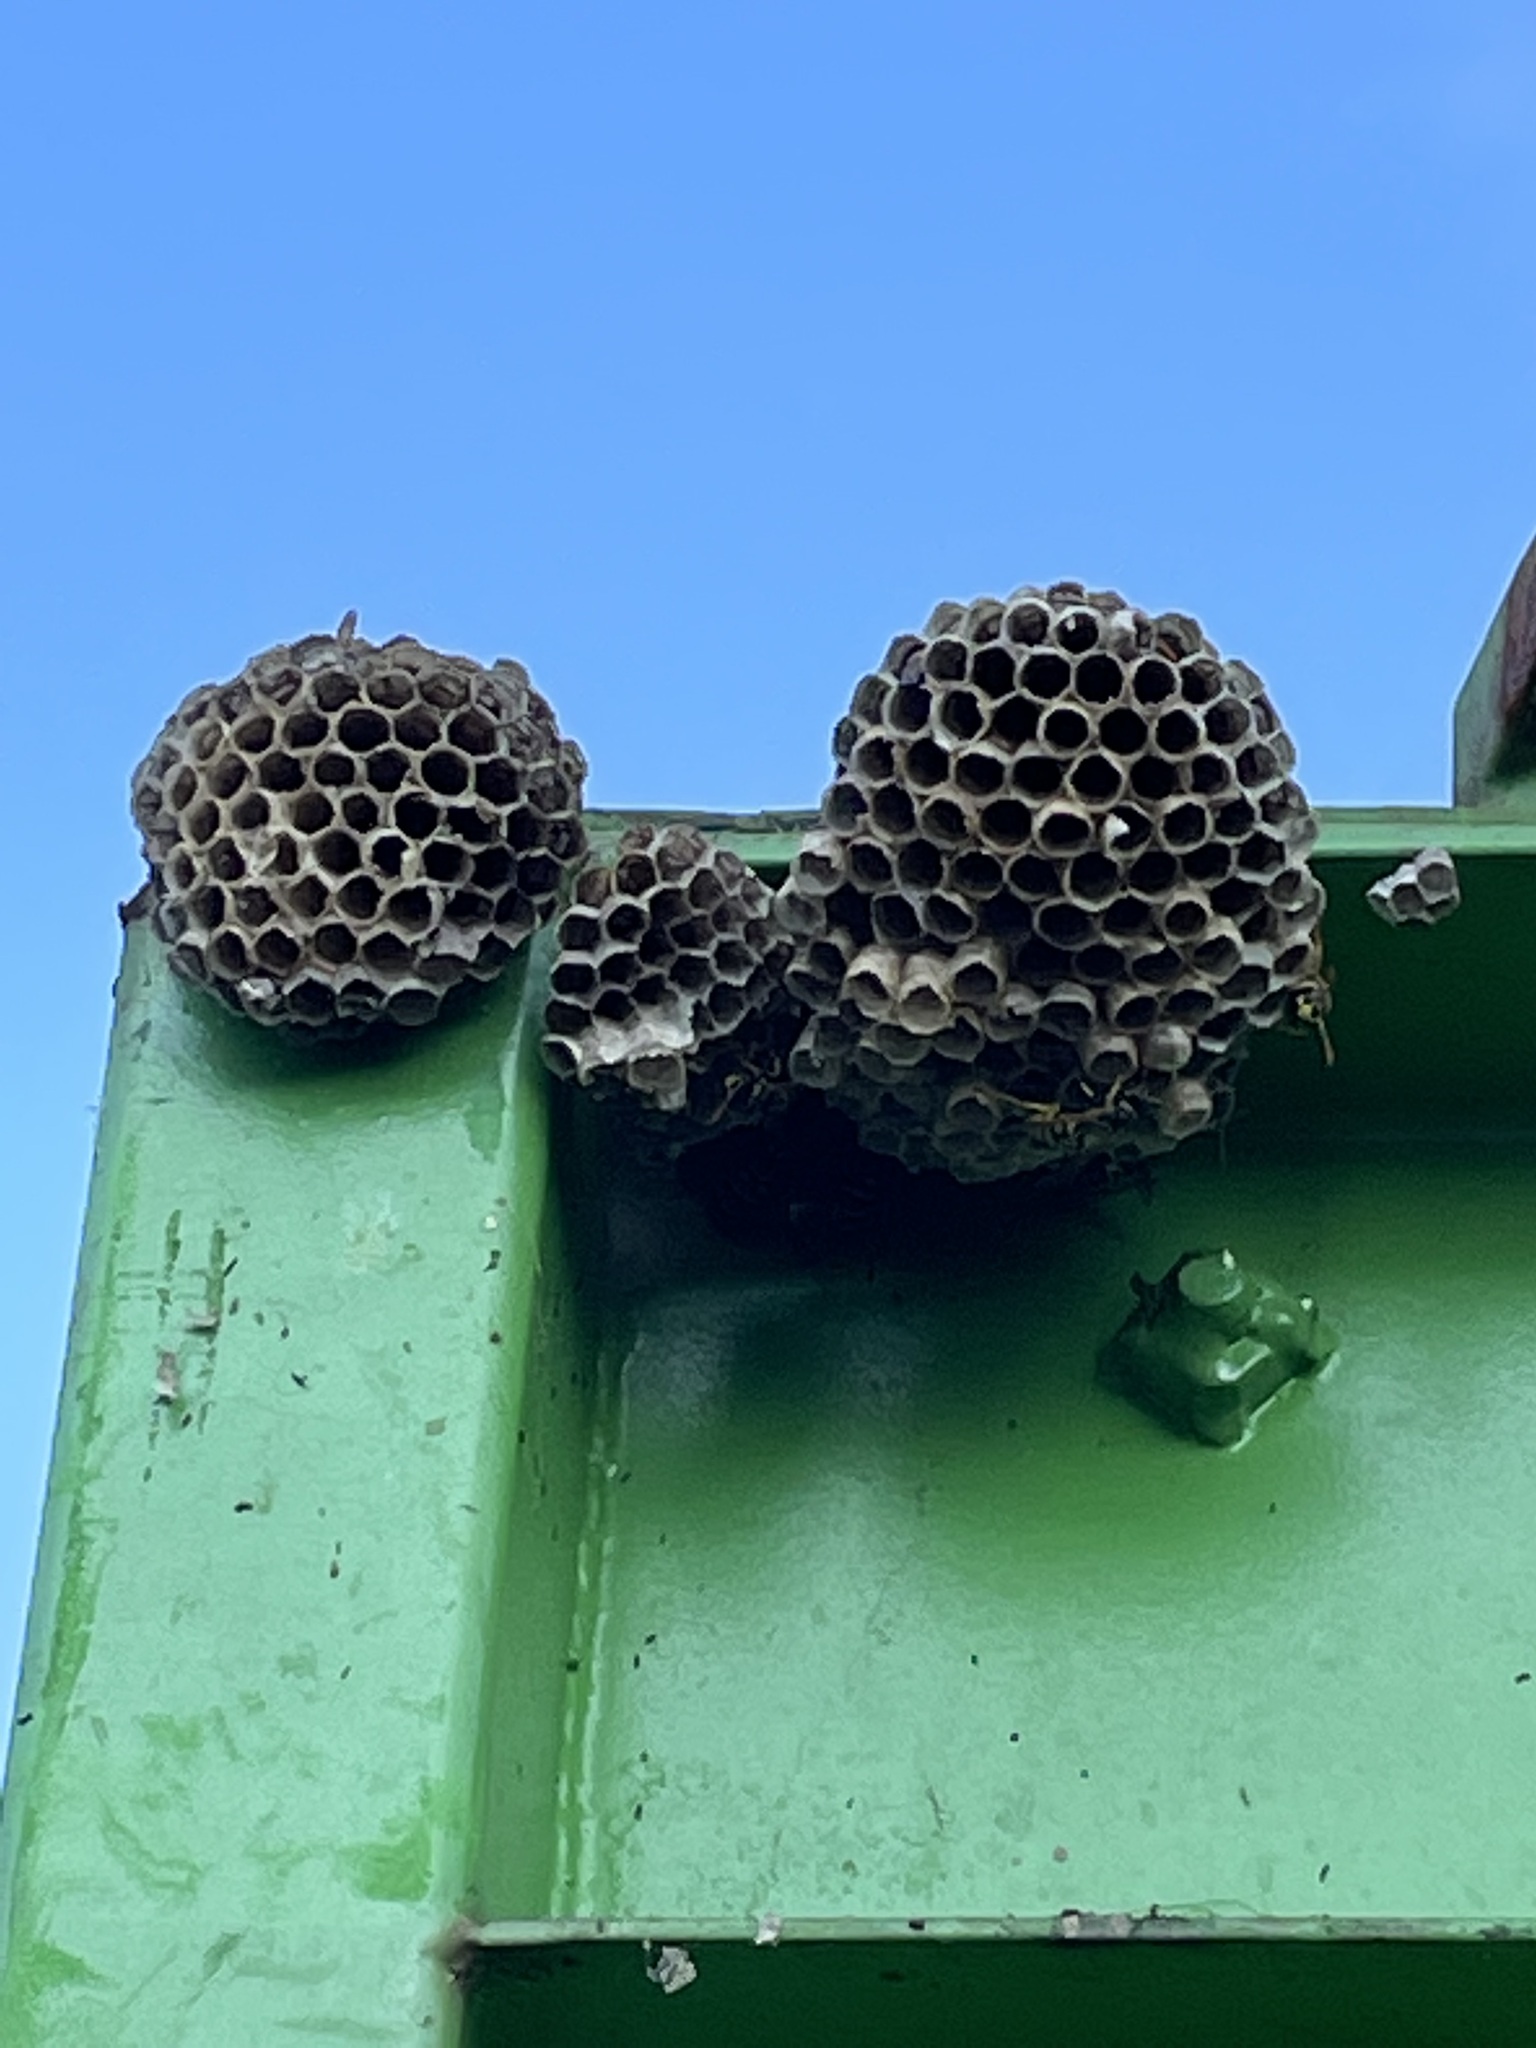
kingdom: Animalia
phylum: Arthropoda
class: Insecta
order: Hymenoptera
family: Eumenidae
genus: Polistes
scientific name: Polistes dominula
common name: Paper wasp
